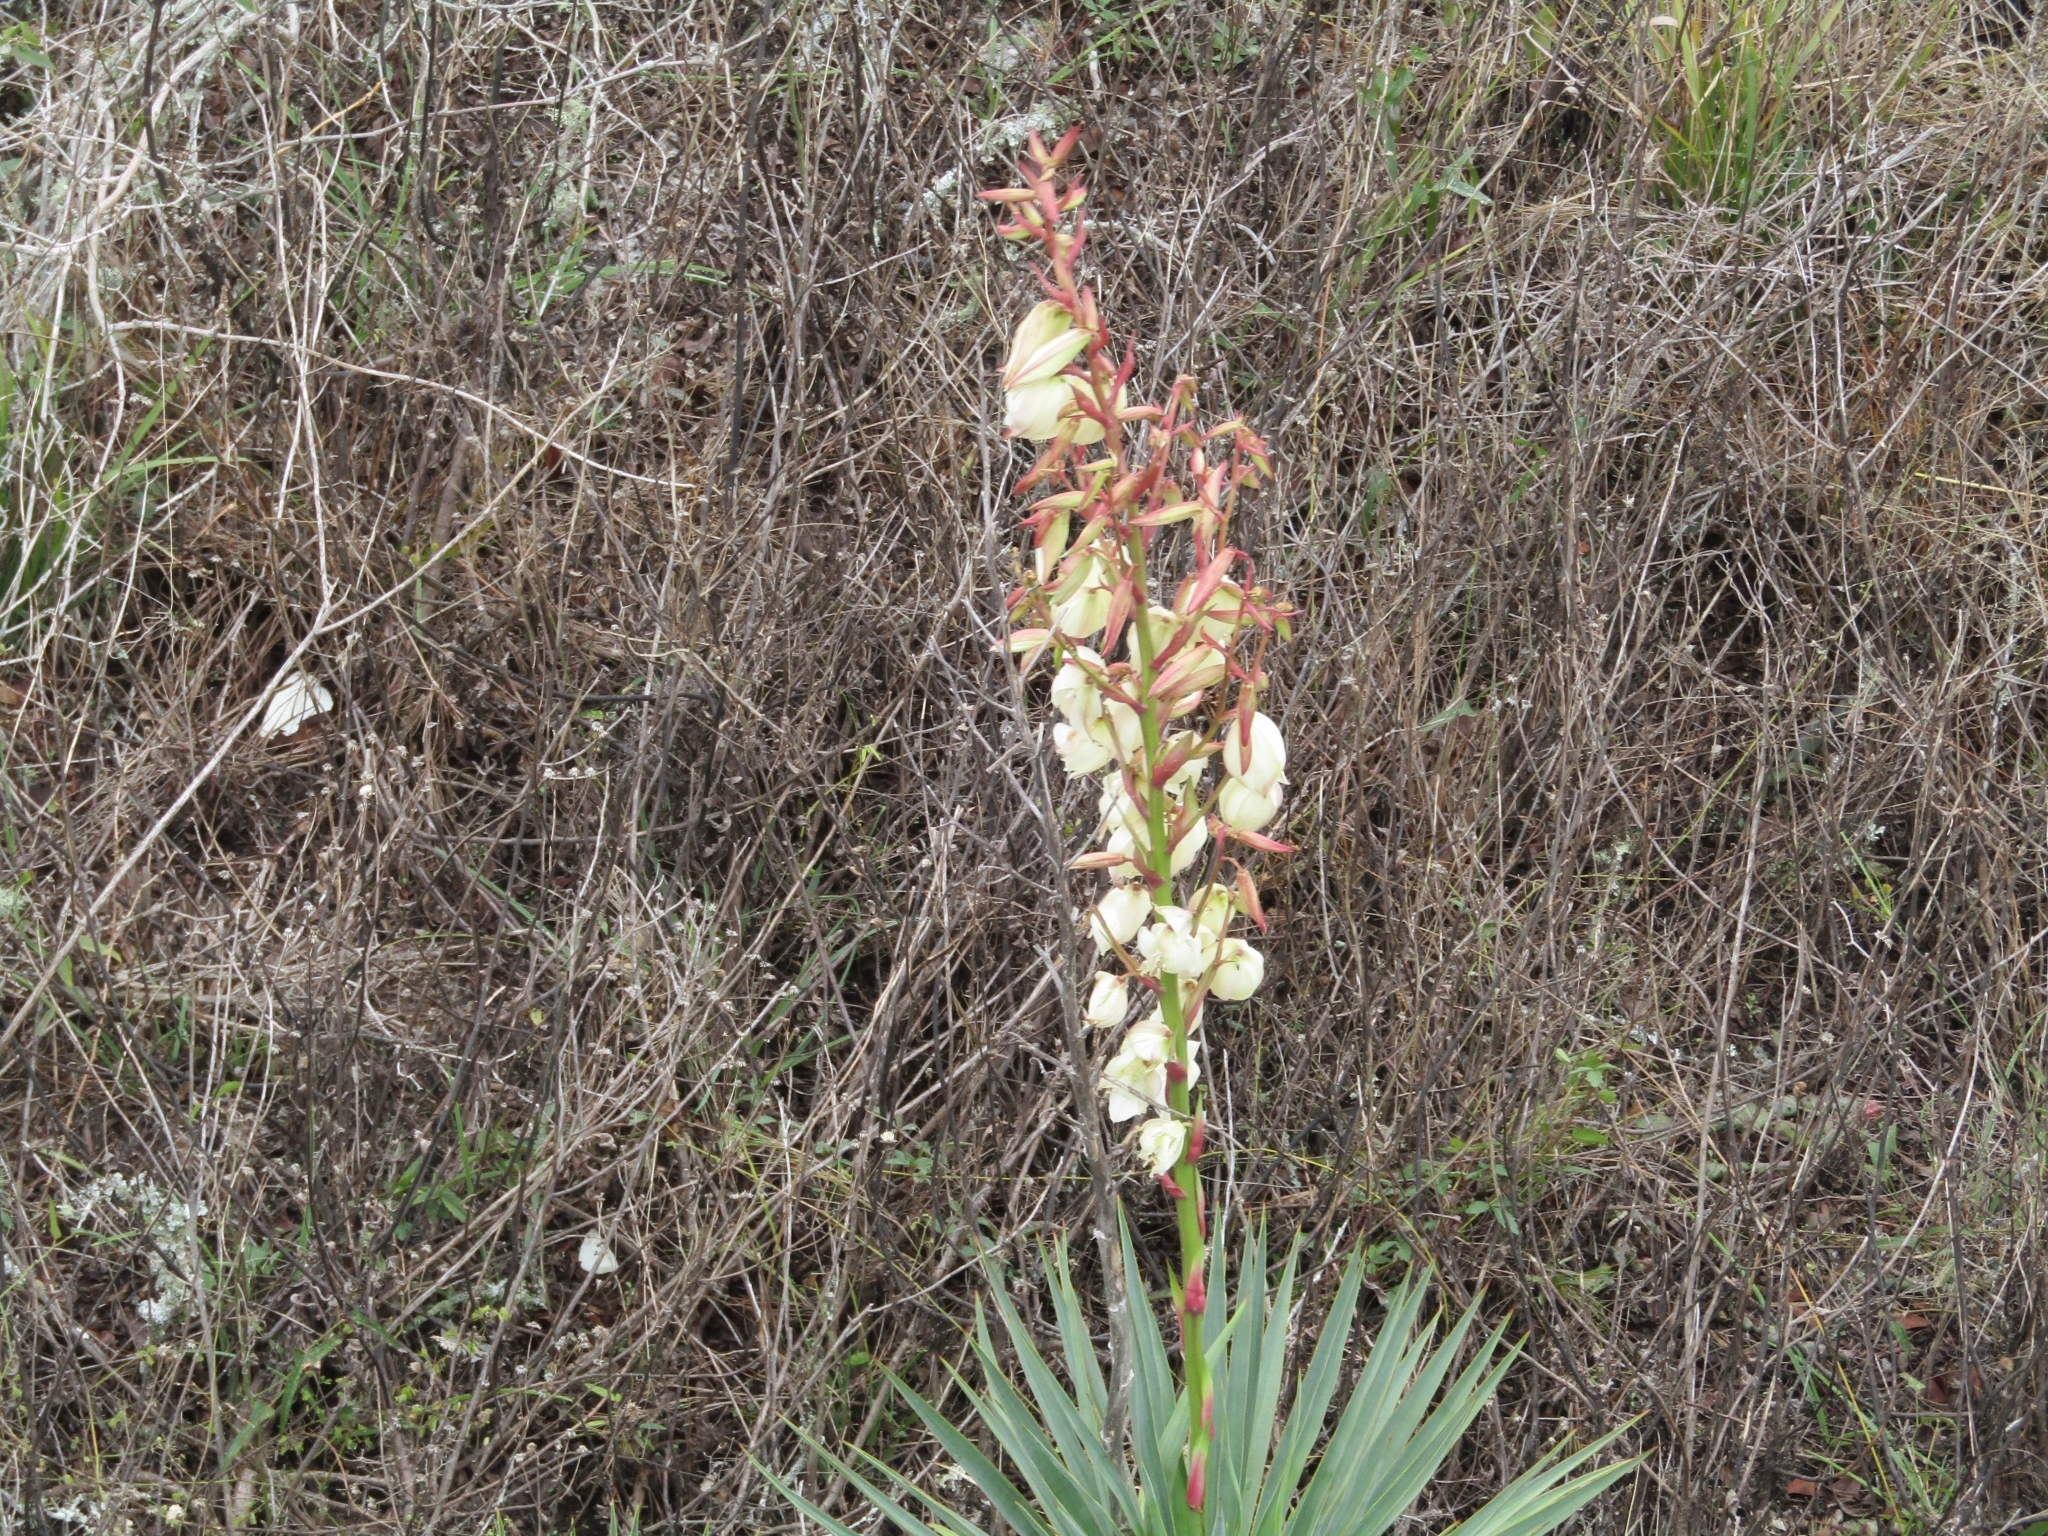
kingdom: Plantae
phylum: Tracheophyta
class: Liliopsida
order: Asparagales
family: Asparagaceae
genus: Yucca
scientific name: Yucca filamentosa
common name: Adam's-needle
